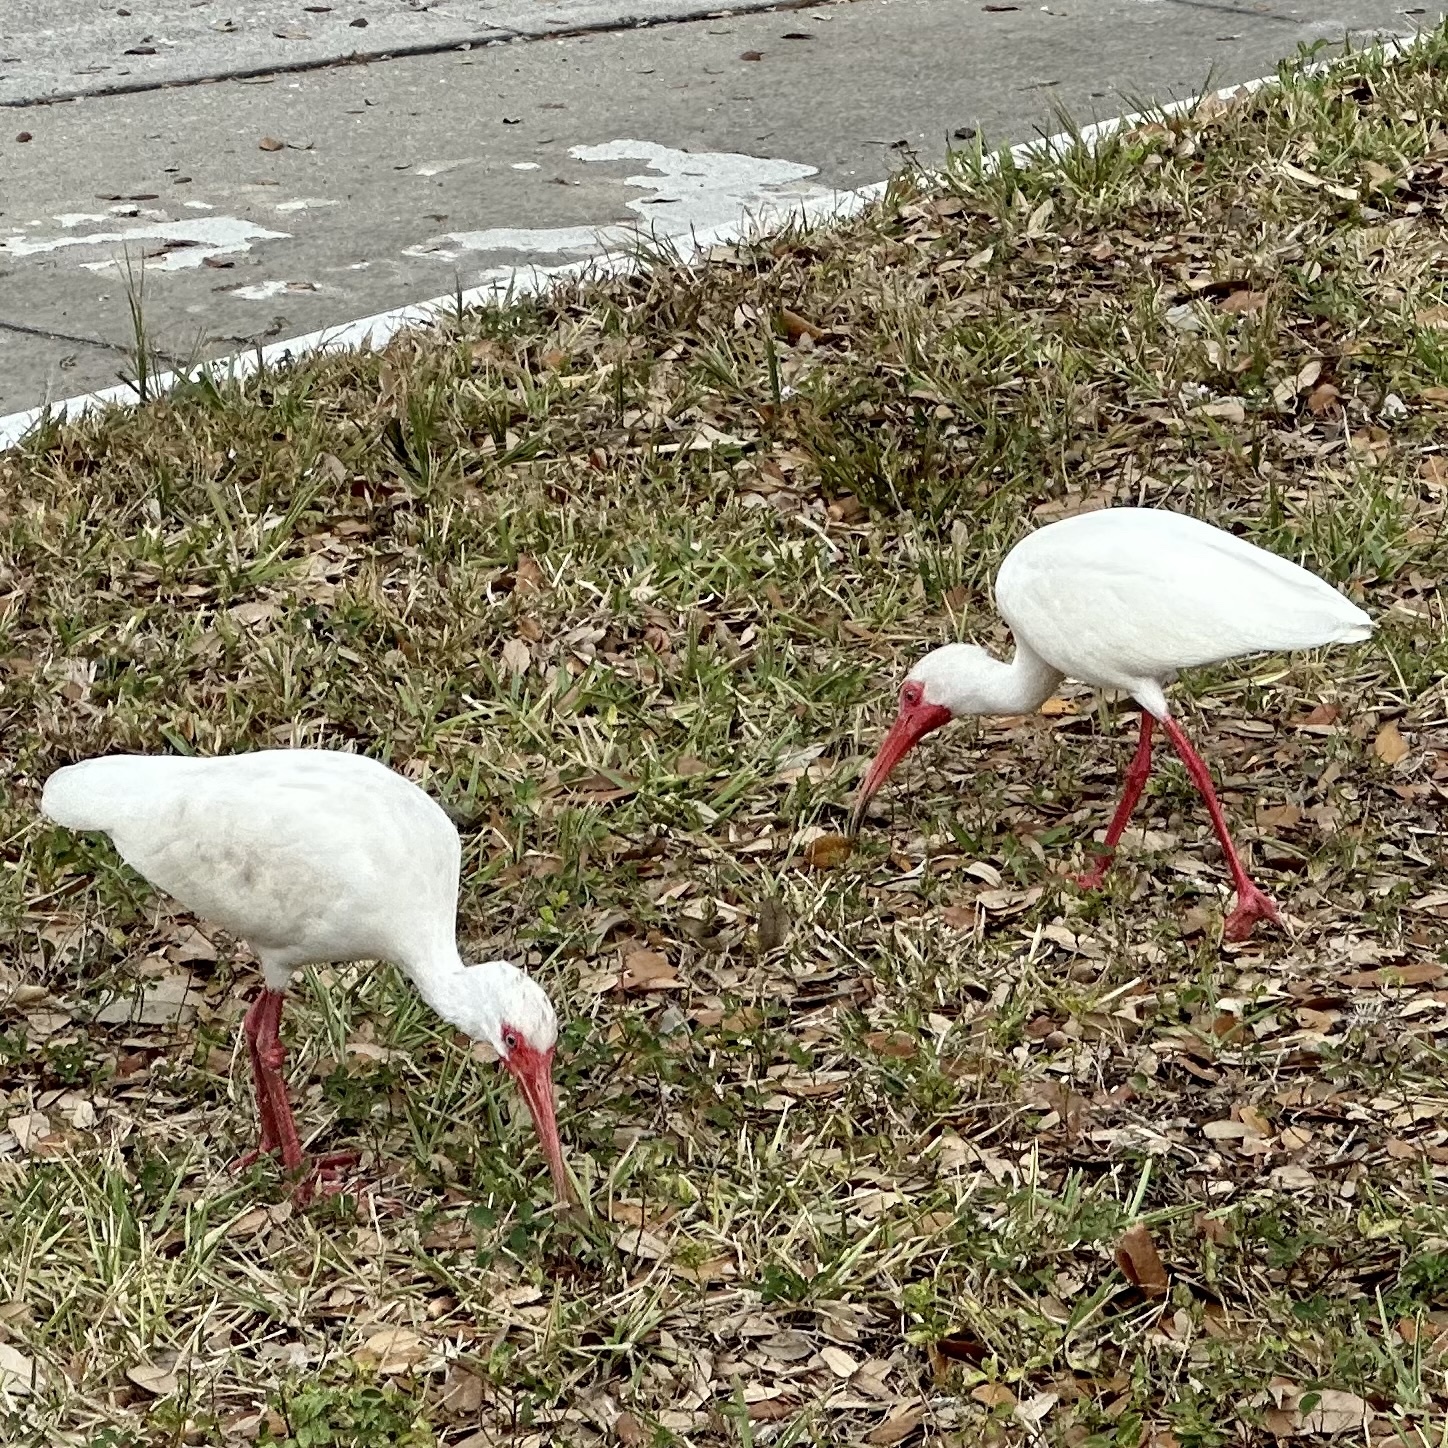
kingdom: Animalia
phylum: Chordata
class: Aves
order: Pelecaniformes
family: Threskiornithidae
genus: Eudocimus
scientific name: Eudocimus albus
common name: White ibis
